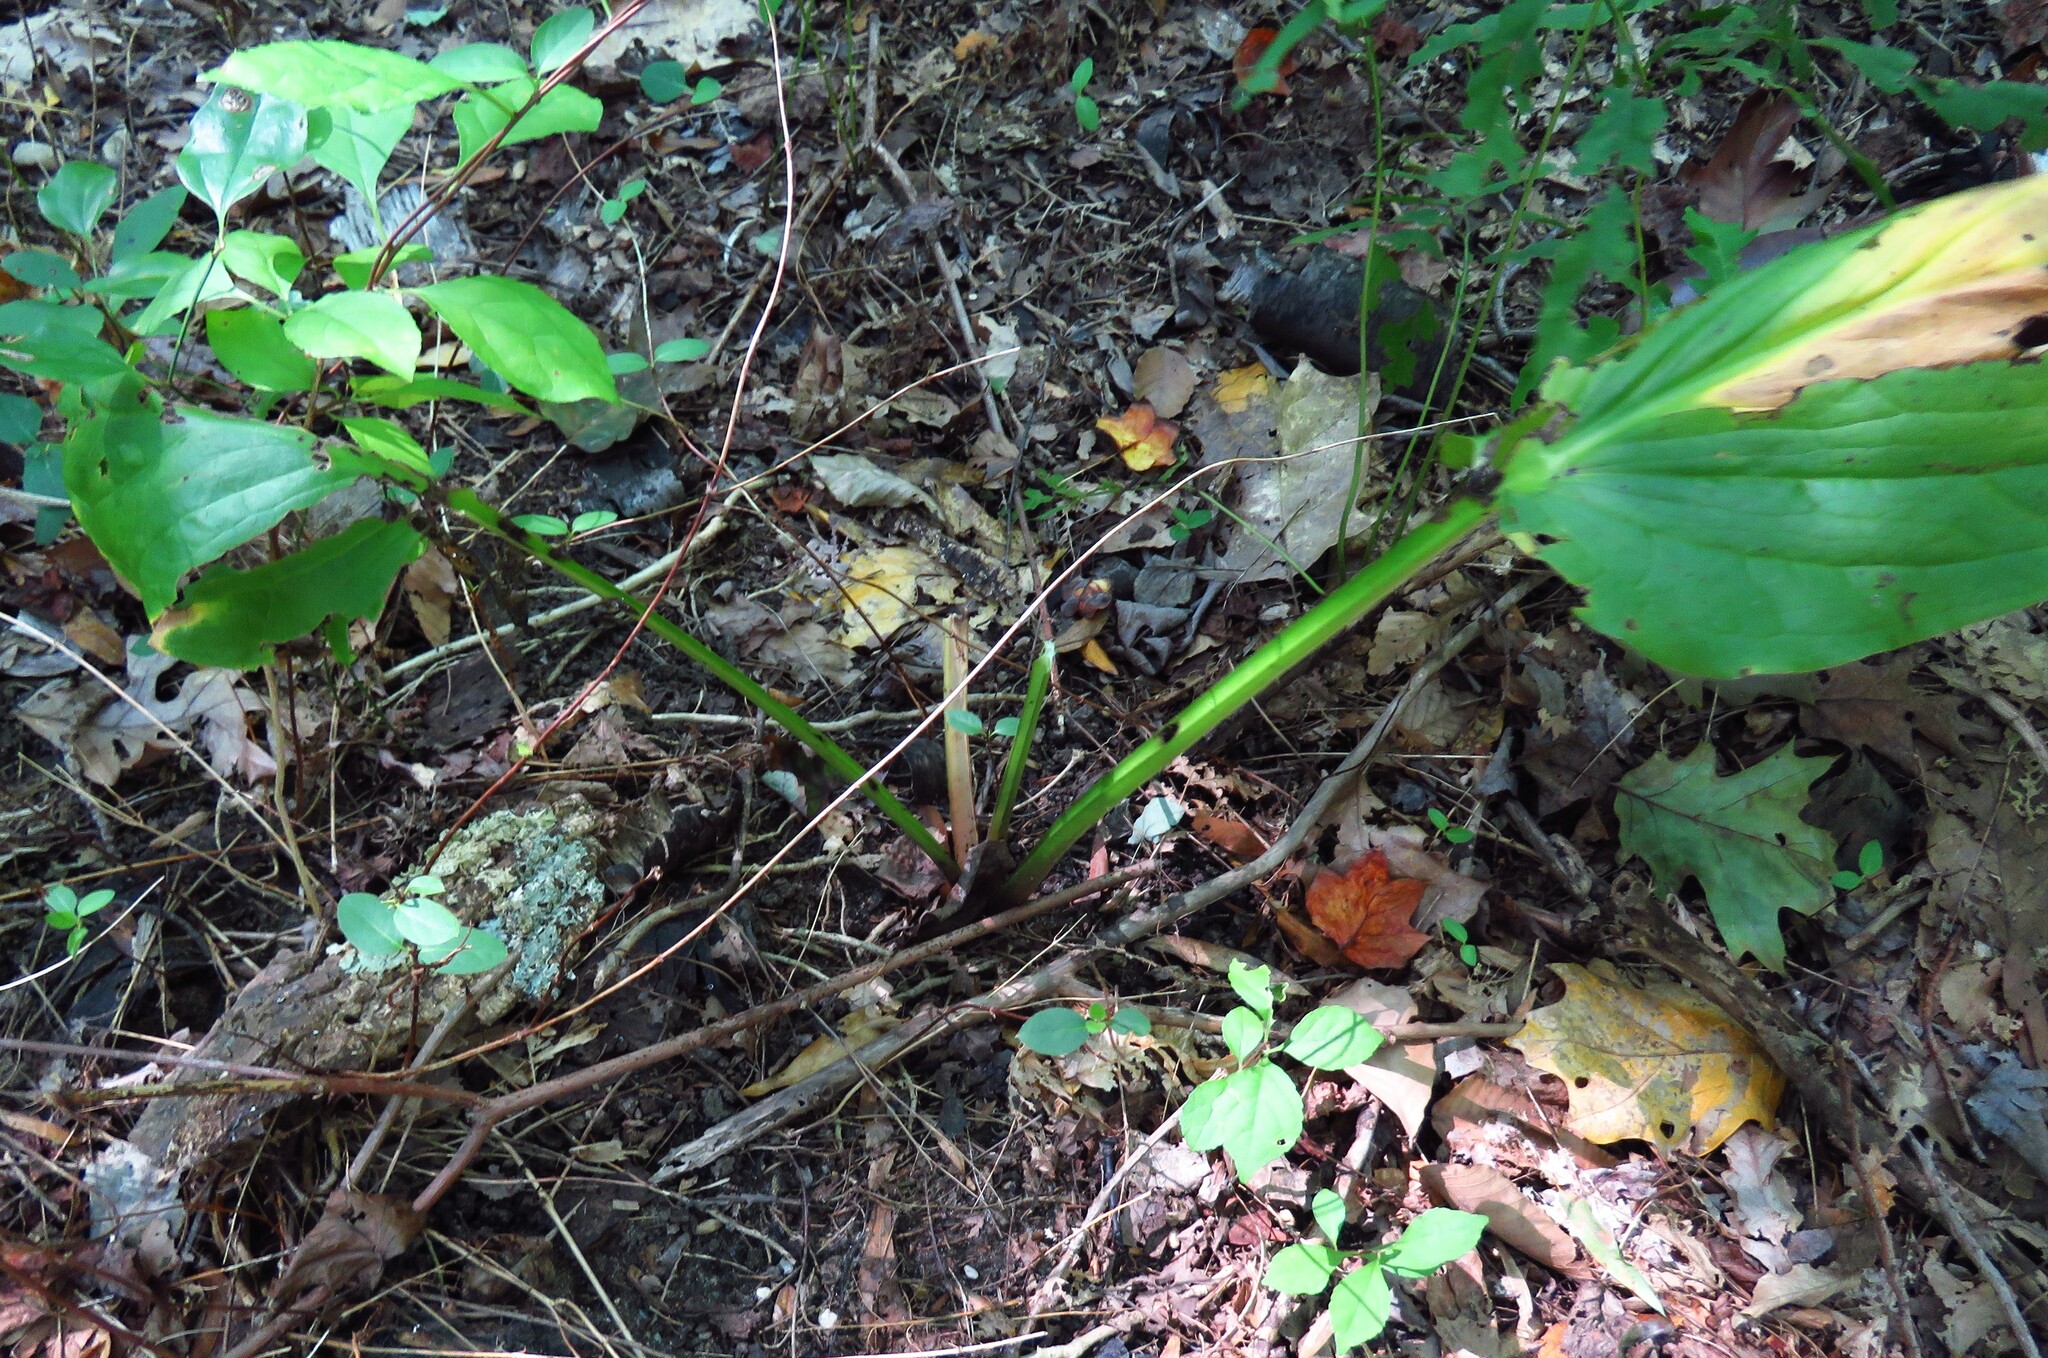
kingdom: Plantae
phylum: Tracheophyta
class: Liliopsida
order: Alismatales
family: Araceae
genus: Symplocarpus
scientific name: Symplocarpus foetidus
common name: Eastern skunk cabbage
